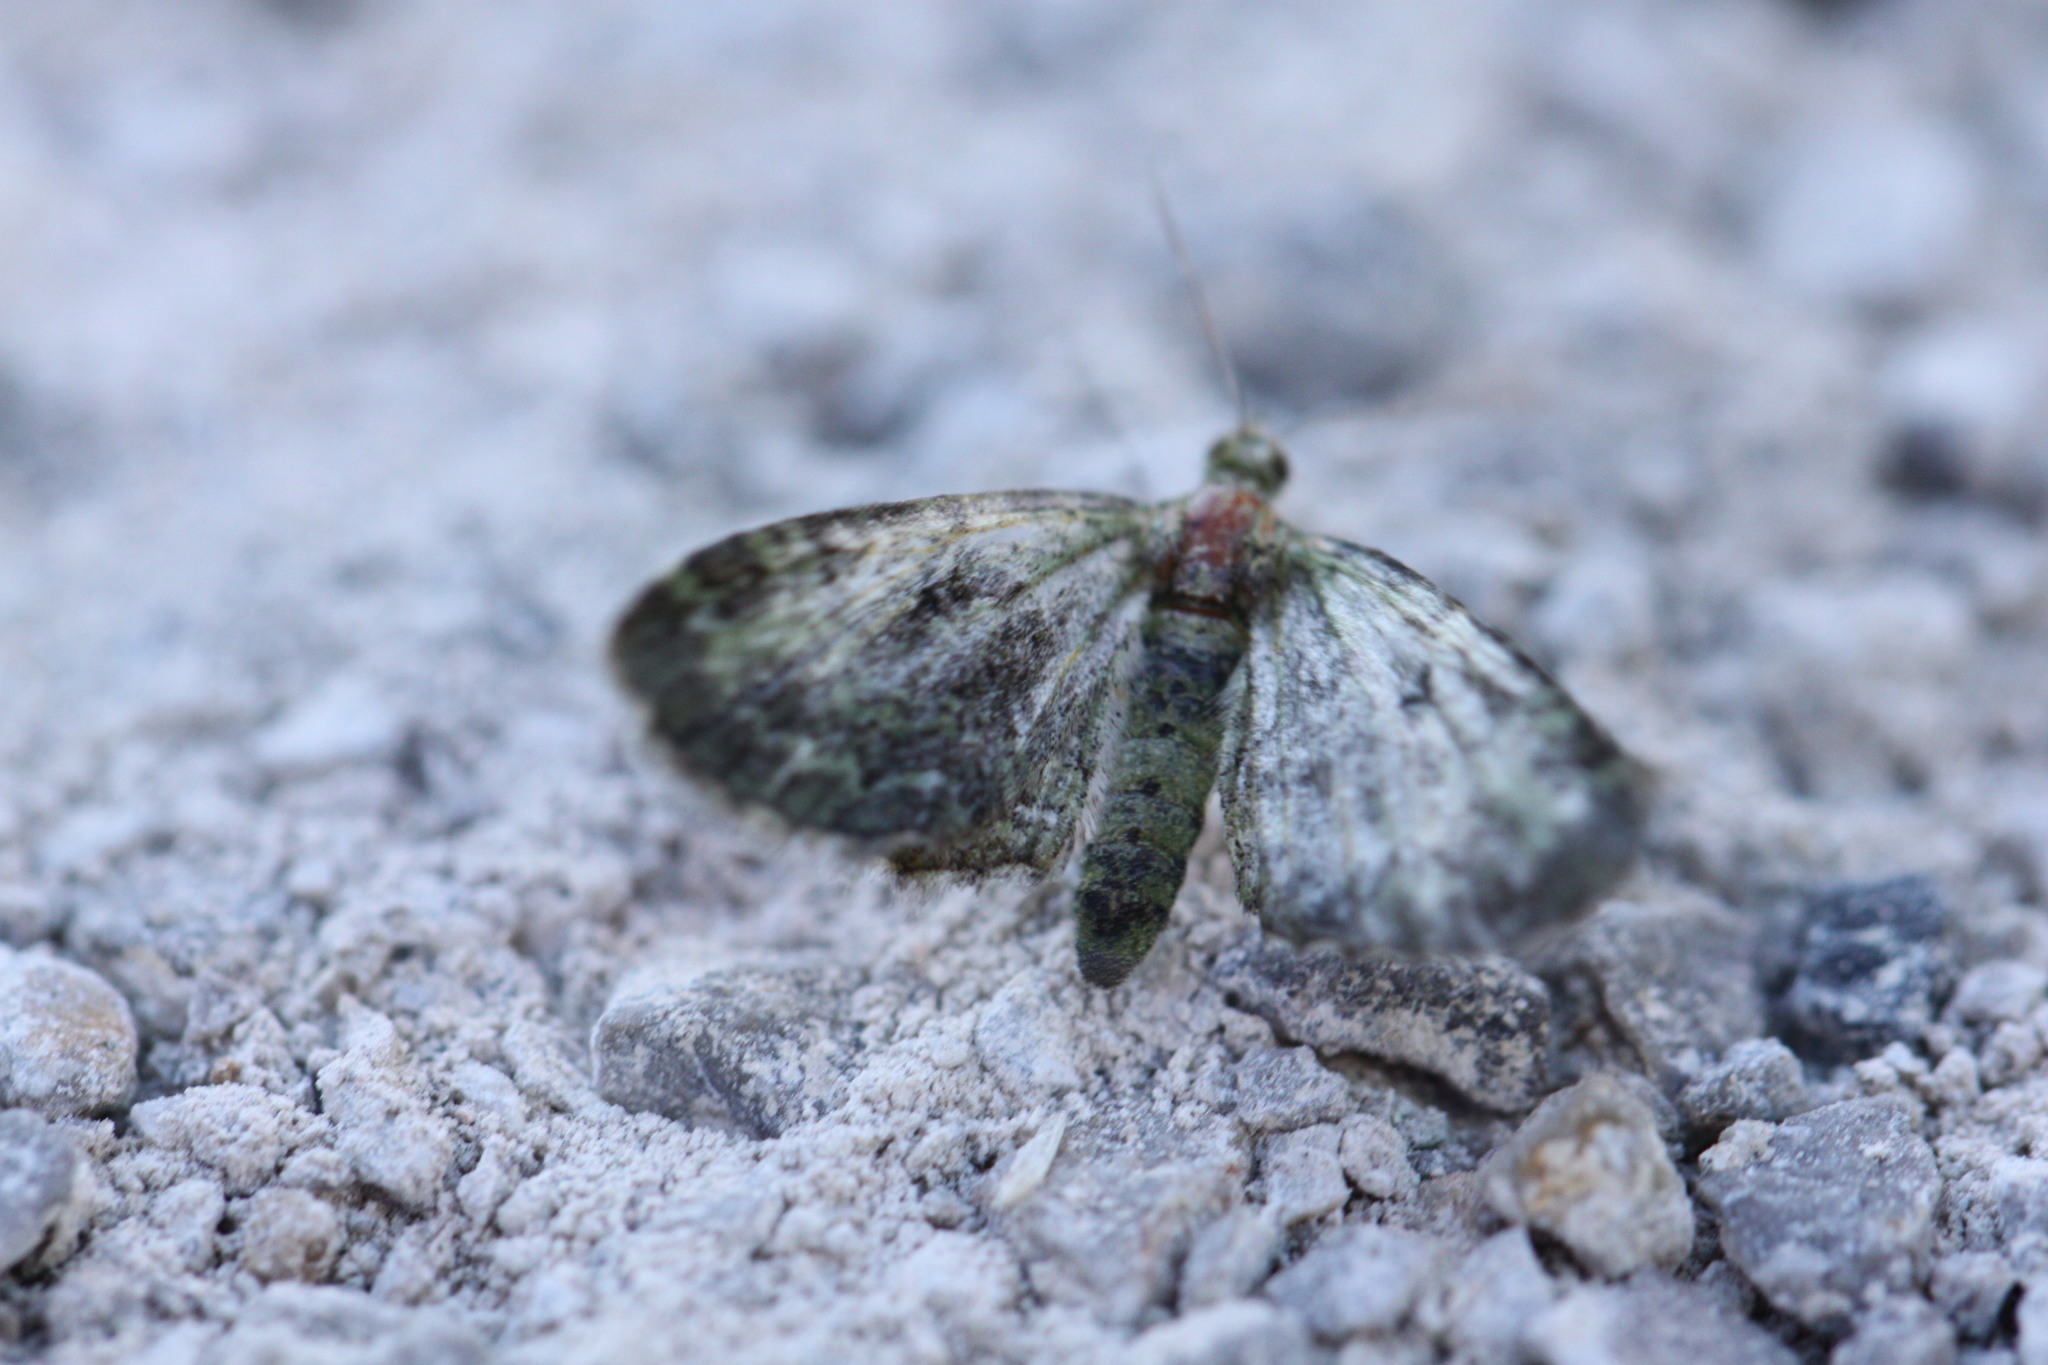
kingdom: Animalia
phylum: Arthropoda
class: Insecta
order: Lepidoptera
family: Geometridae
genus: Pasiphila
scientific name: Pasiphila rectangulata
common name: Green pug
